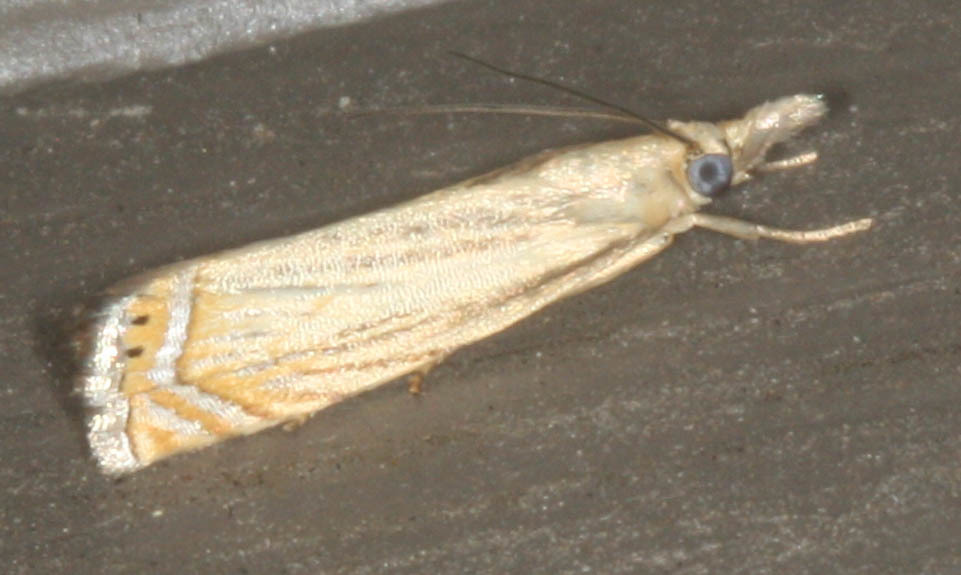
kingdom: Animalia
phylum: Arthropoda
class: Insecta
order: Lepidoptera
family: Crambidae
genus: Chrysoteuchia
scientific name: Chrysoteuchia topiarius
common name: Topiary grass-veneer
